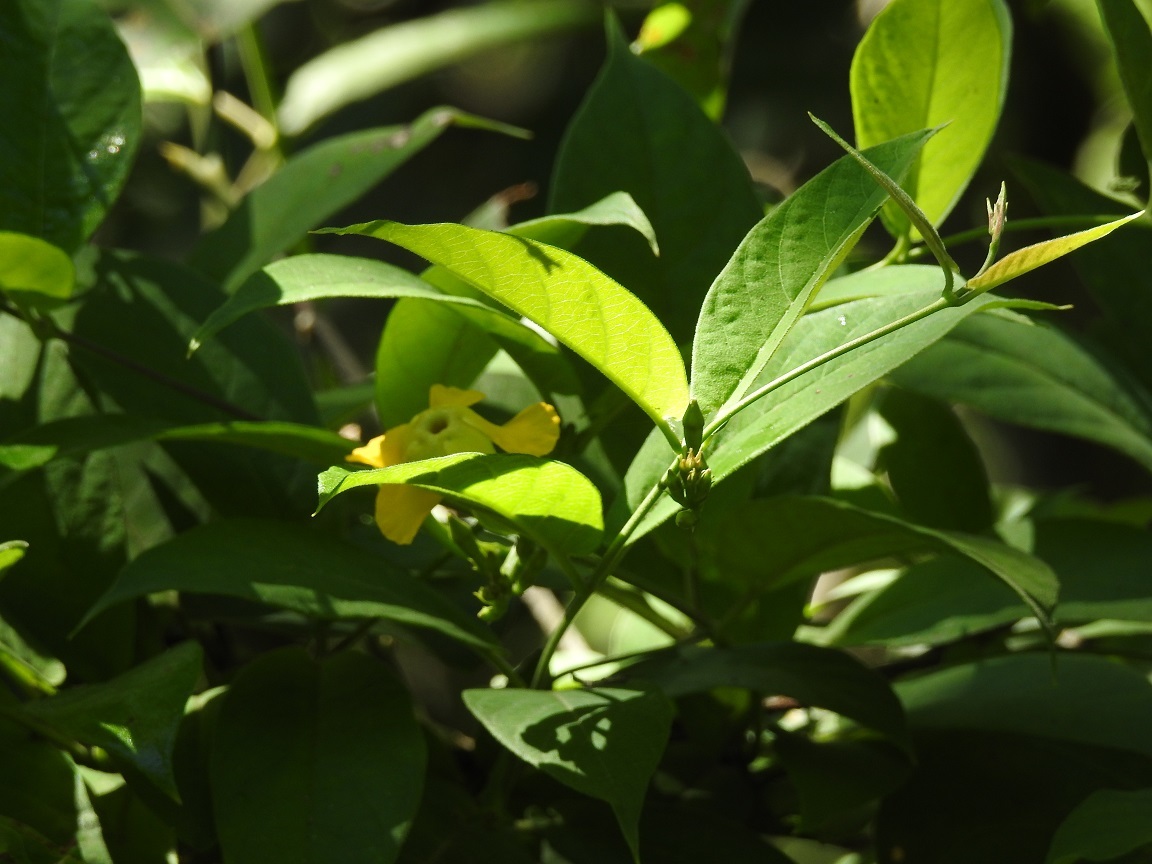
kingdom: Plantae
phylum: Tracheophyta
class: Magnoliopsida
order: Gentianales
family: Apocynaceae
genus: Mandevilla
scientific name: Mandevilla subsessilis
